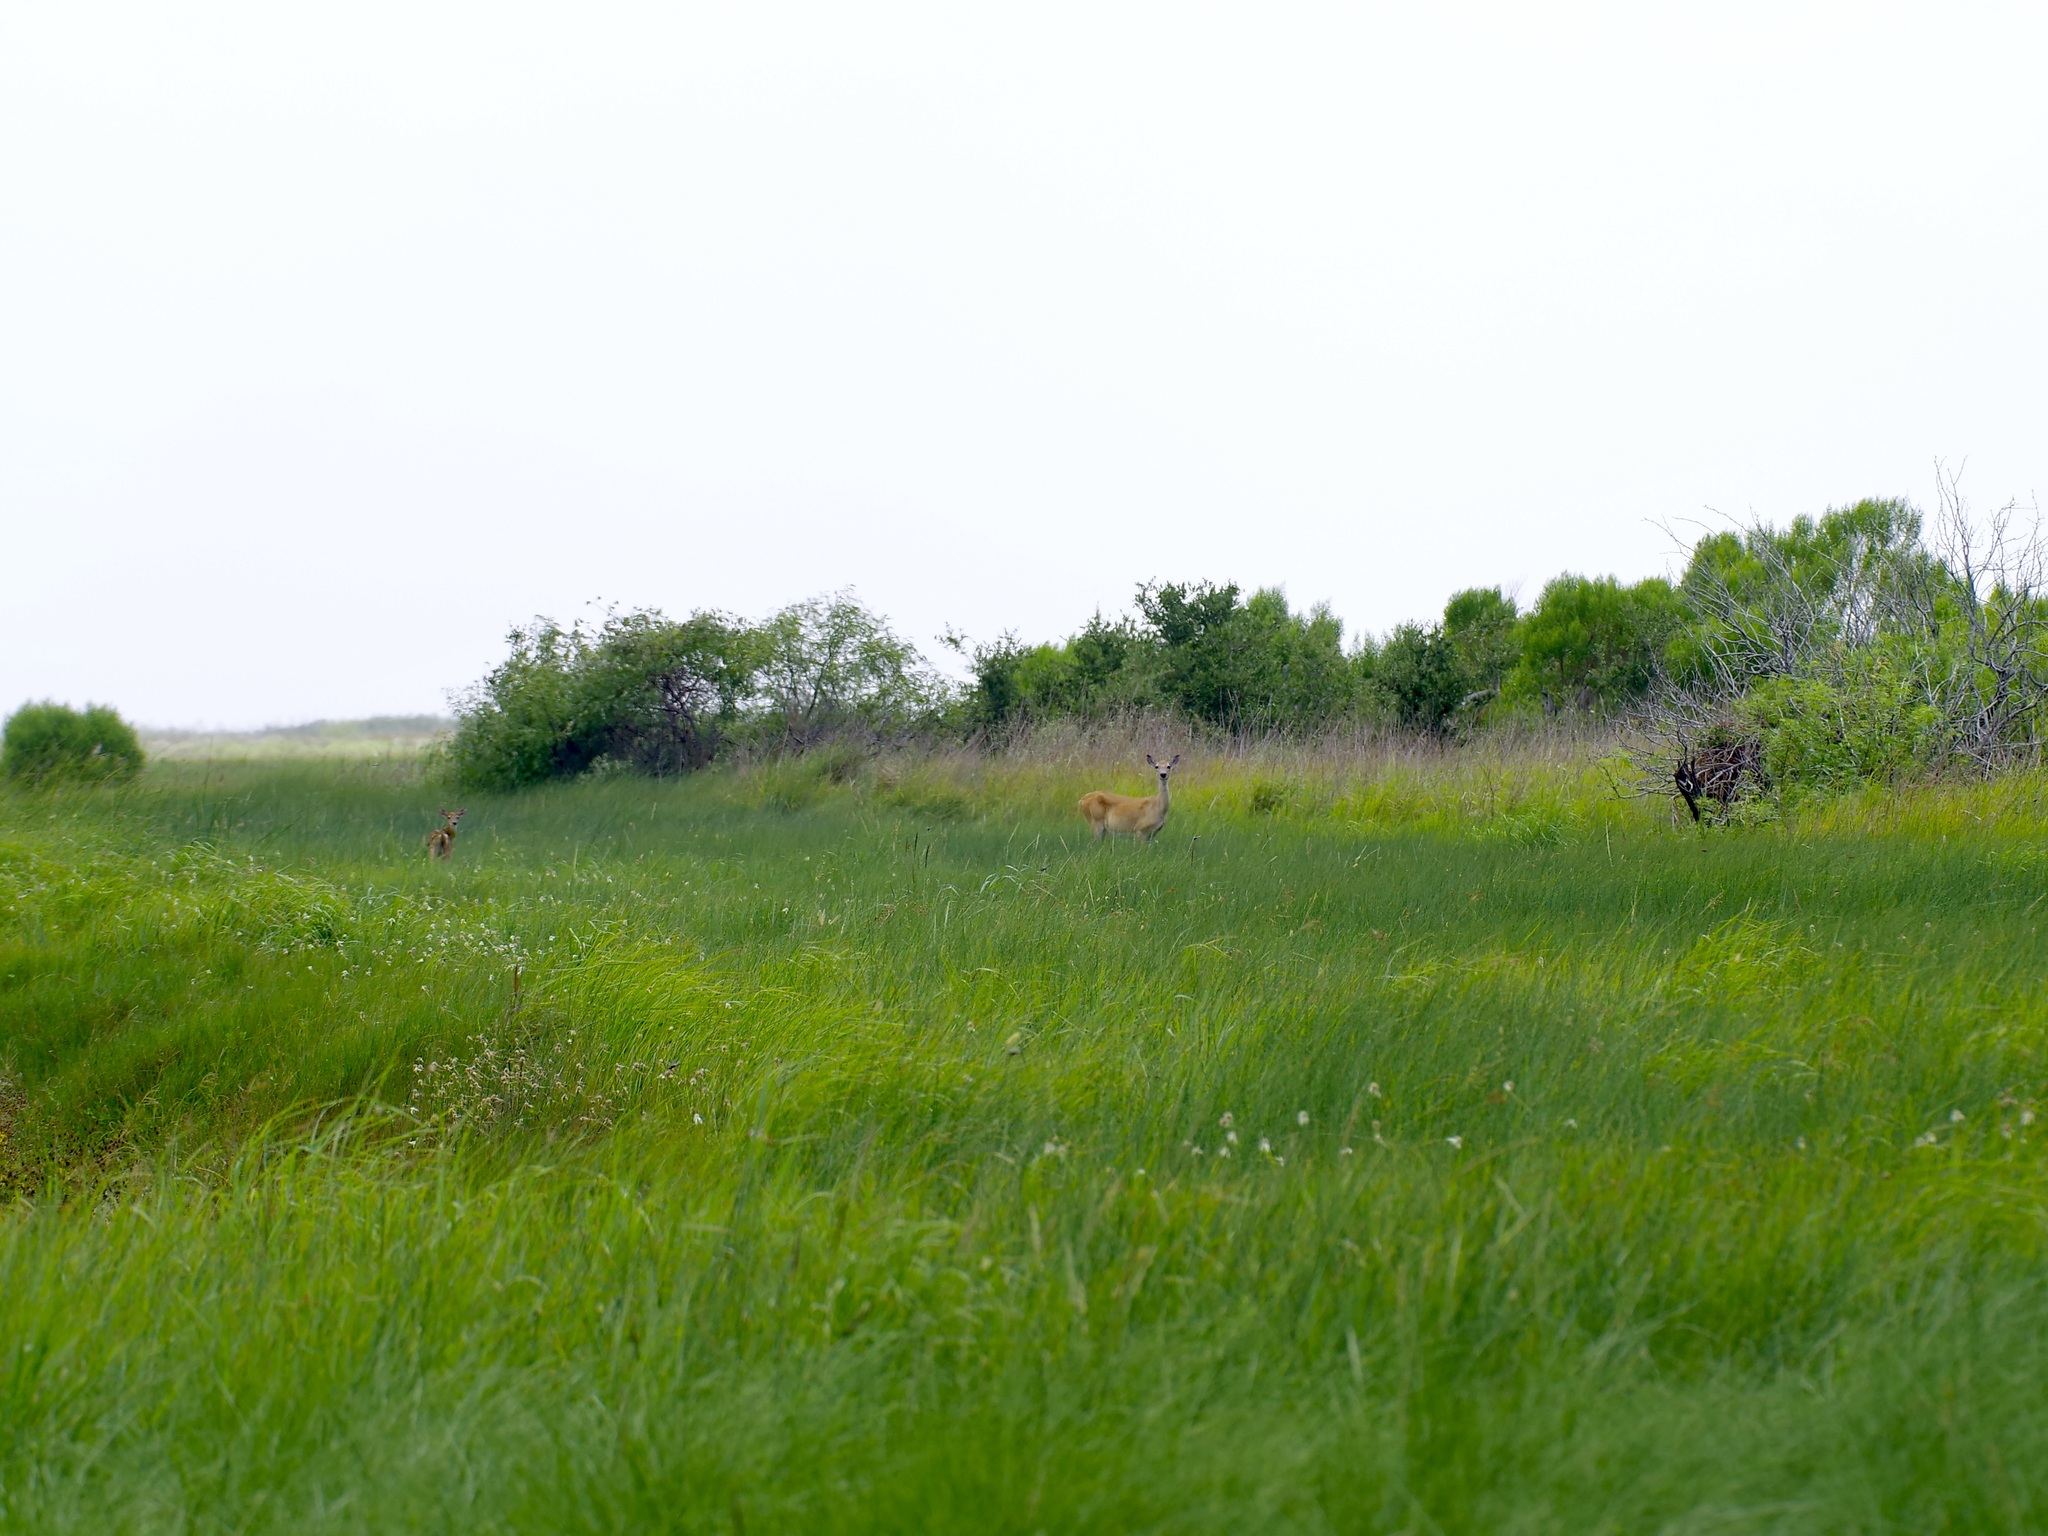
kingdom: Animalia
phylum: Chordata
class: Mammalia
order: Artiodactyla
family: Cervidae
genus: Odocoileus
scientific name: Odocoileus virginianus
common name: White-tailed deer
